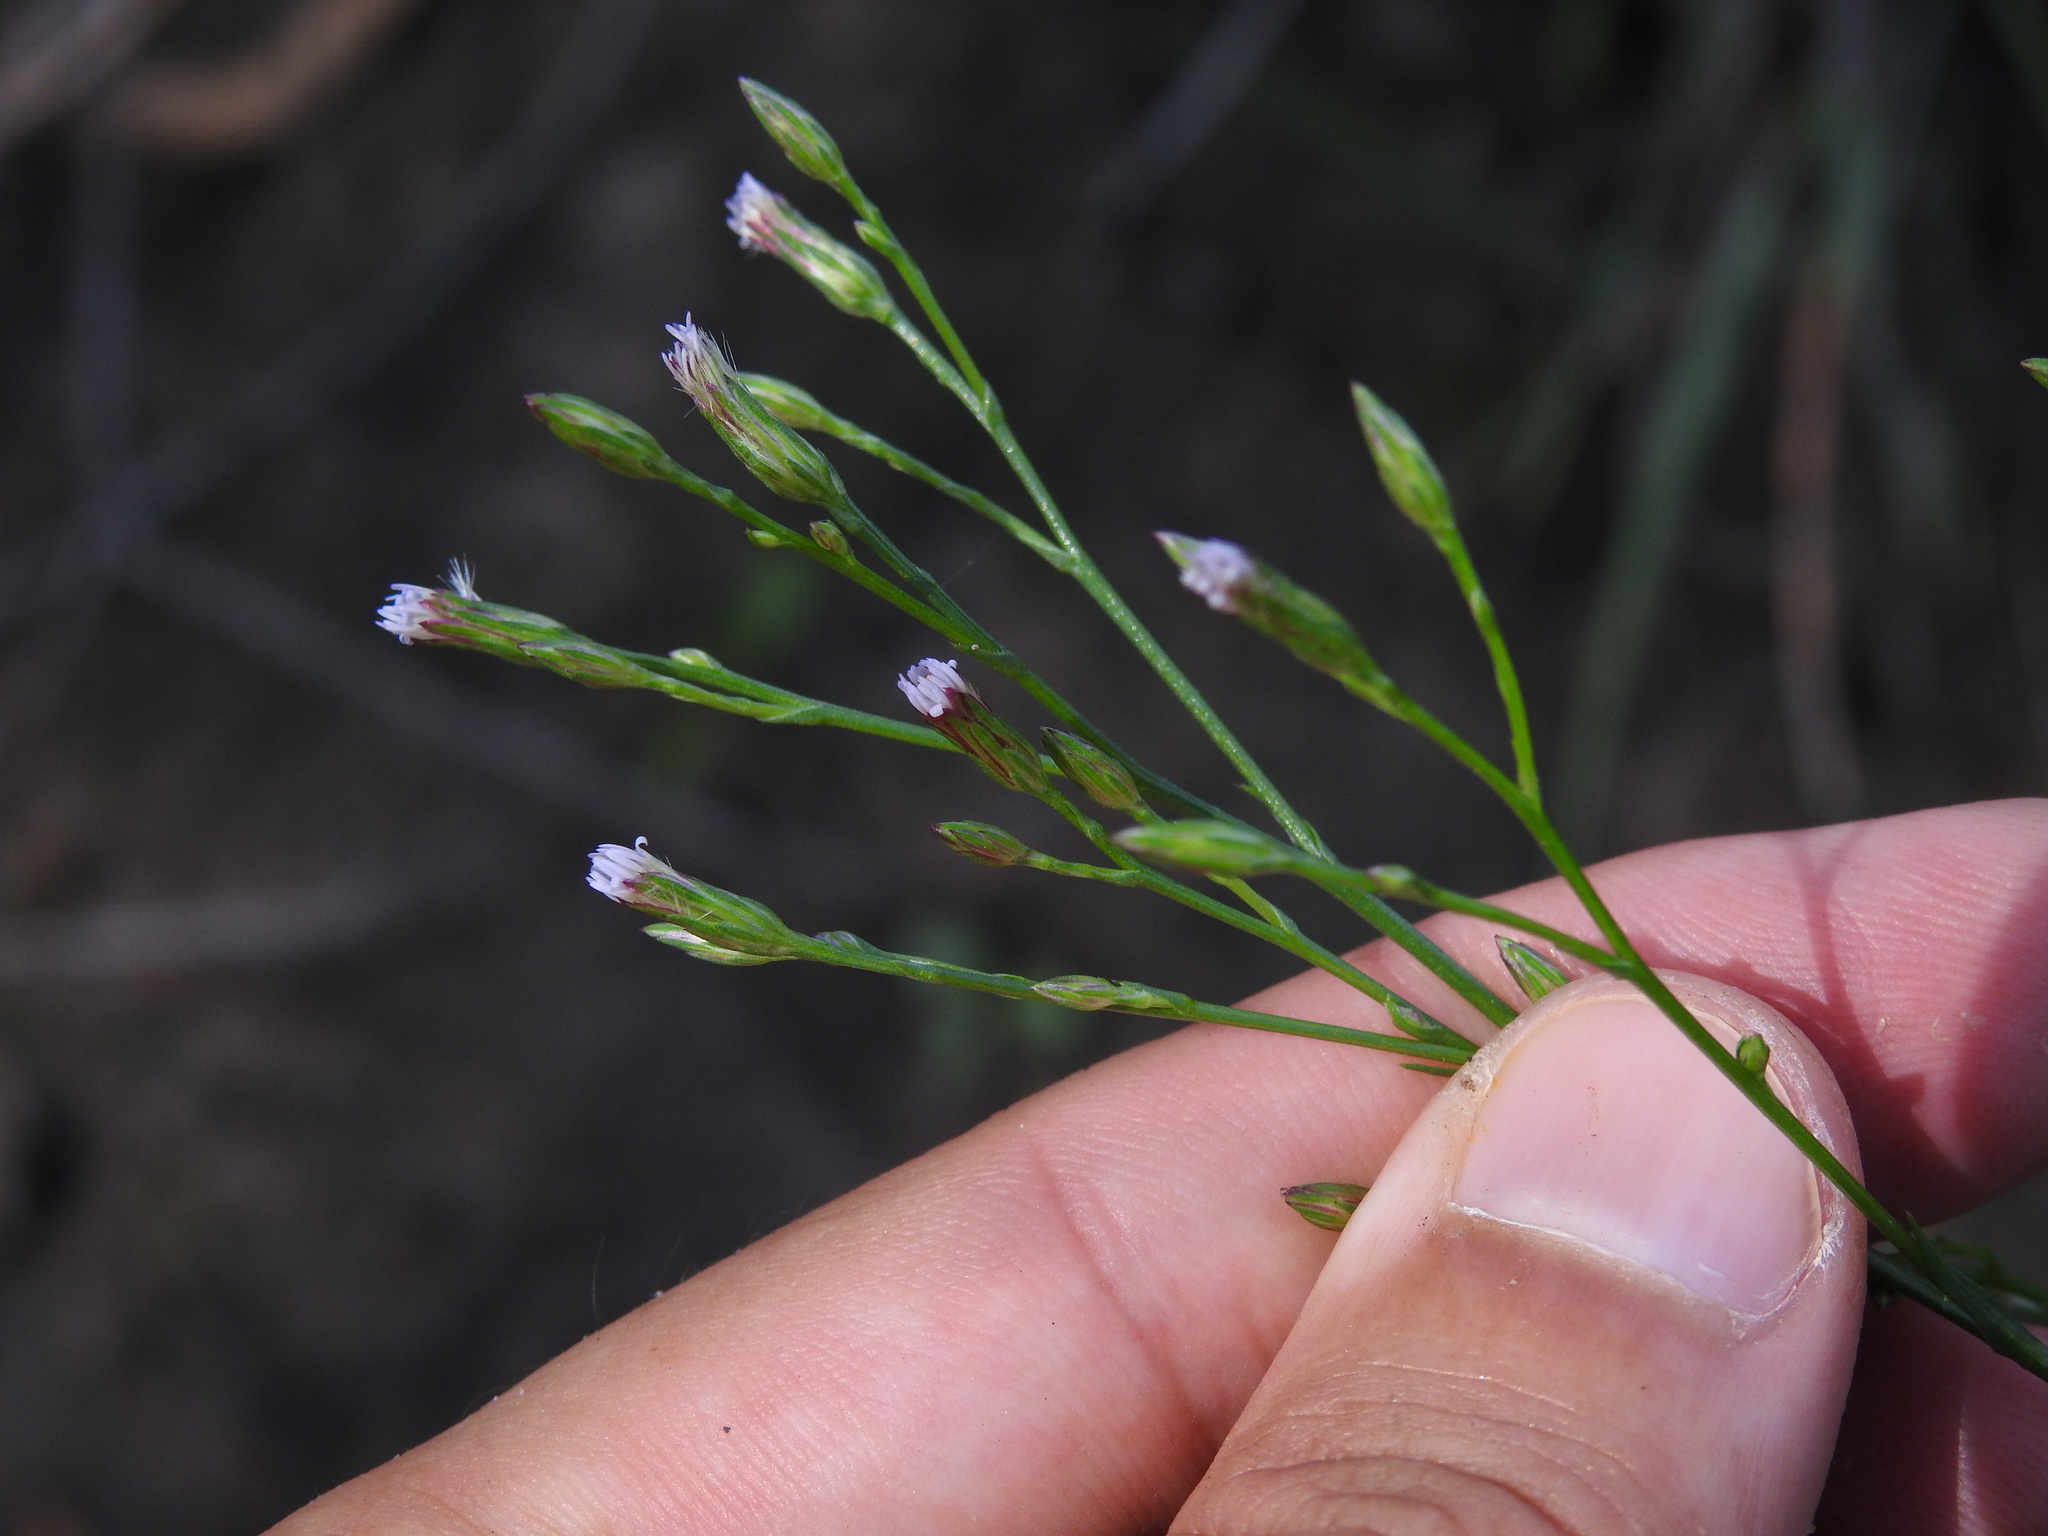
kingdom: Plantae
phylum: Tracheophyta
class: Magnoliopsida
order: Asterales
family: Asteraceae
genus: Symphyotrichum
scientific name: Symphyotrichum squamatum
